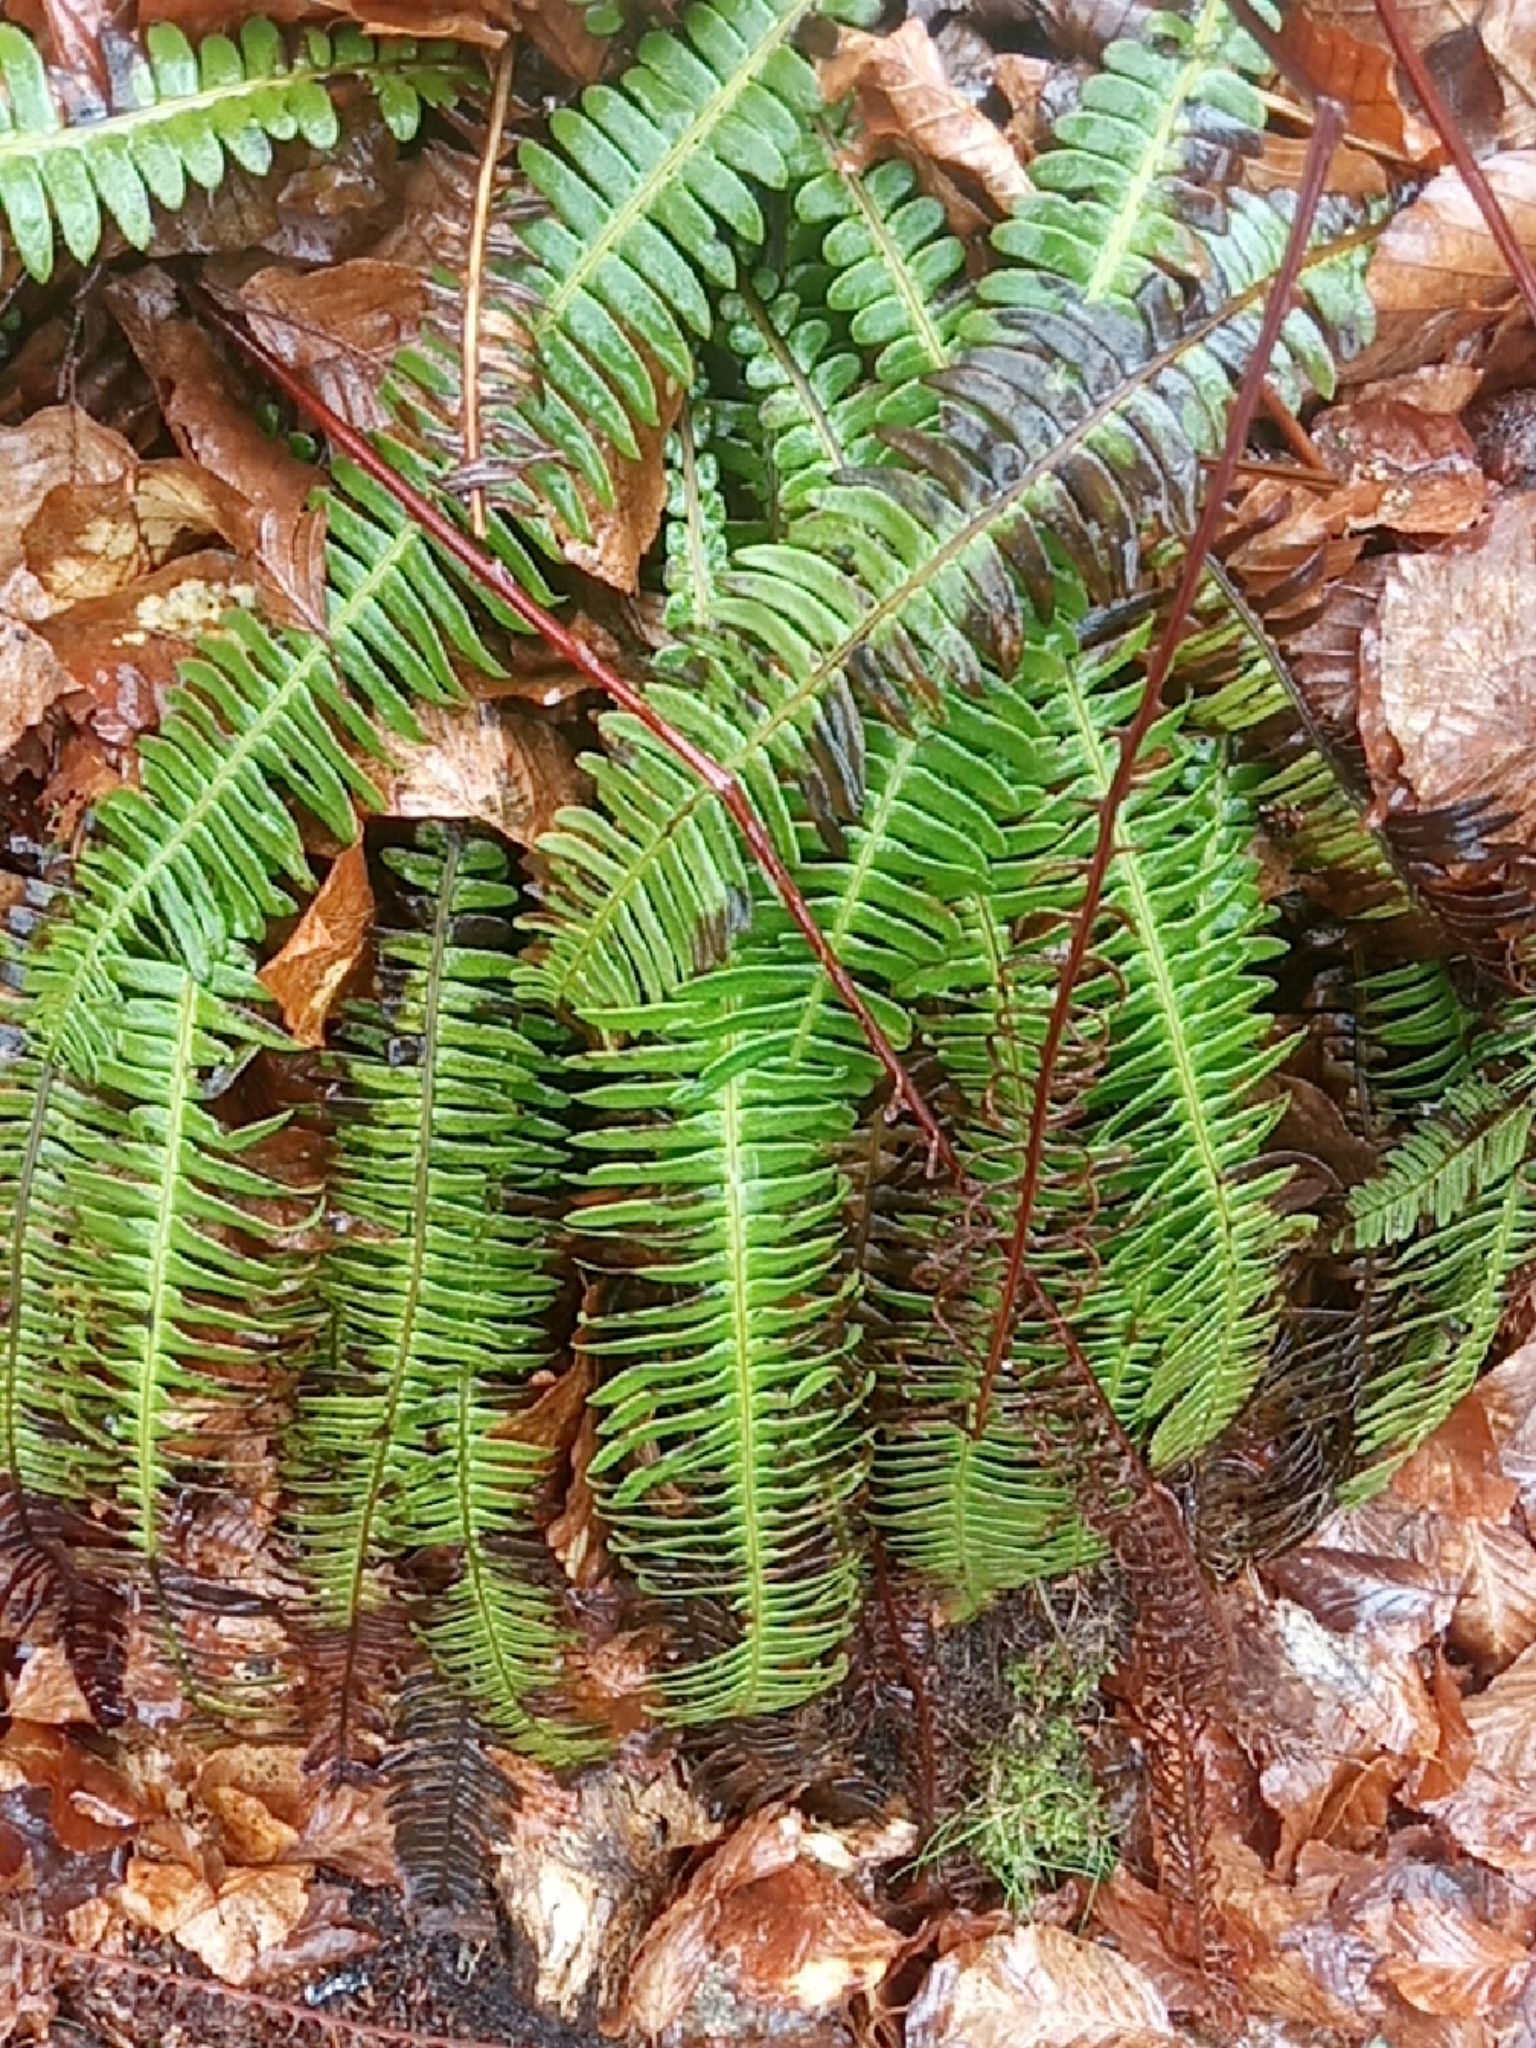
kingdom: Plantae
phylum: Tracheophyta
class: Polypodiopsida
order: Polypodiales
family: Blechnaceae
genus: Struthiopteris
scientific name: Struthiopteris spicant
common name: Deer fern
